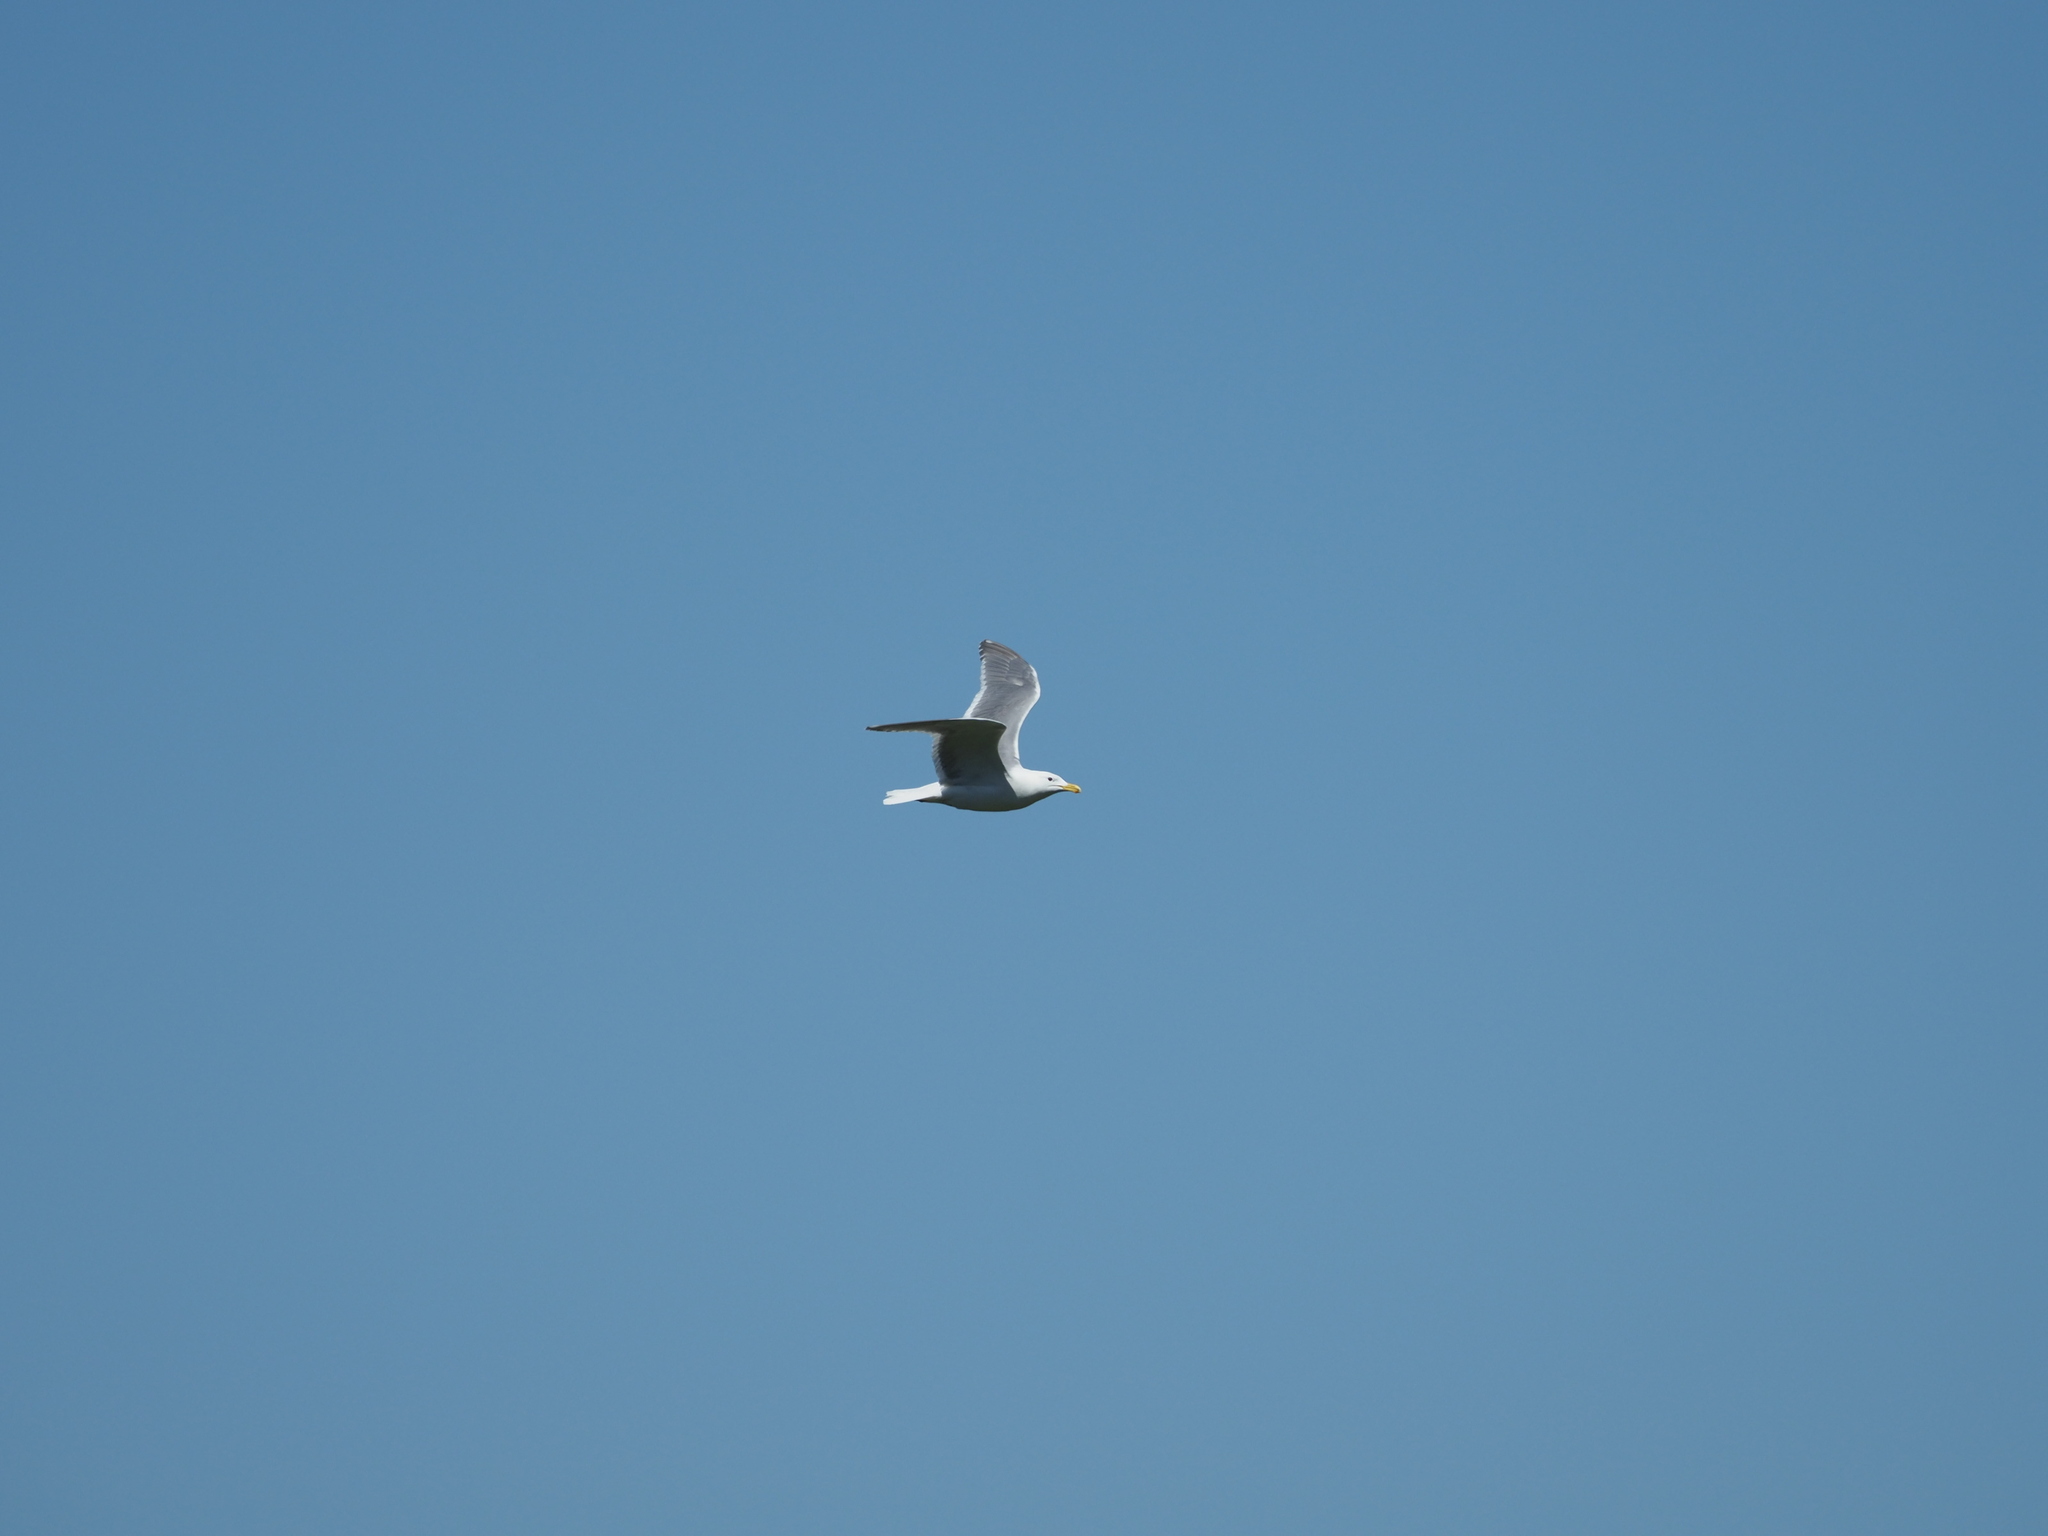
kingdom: Animalia
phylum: Chordata
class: Aves
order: Charadriiformes
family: Laridae
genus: Larus
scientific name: Larus
